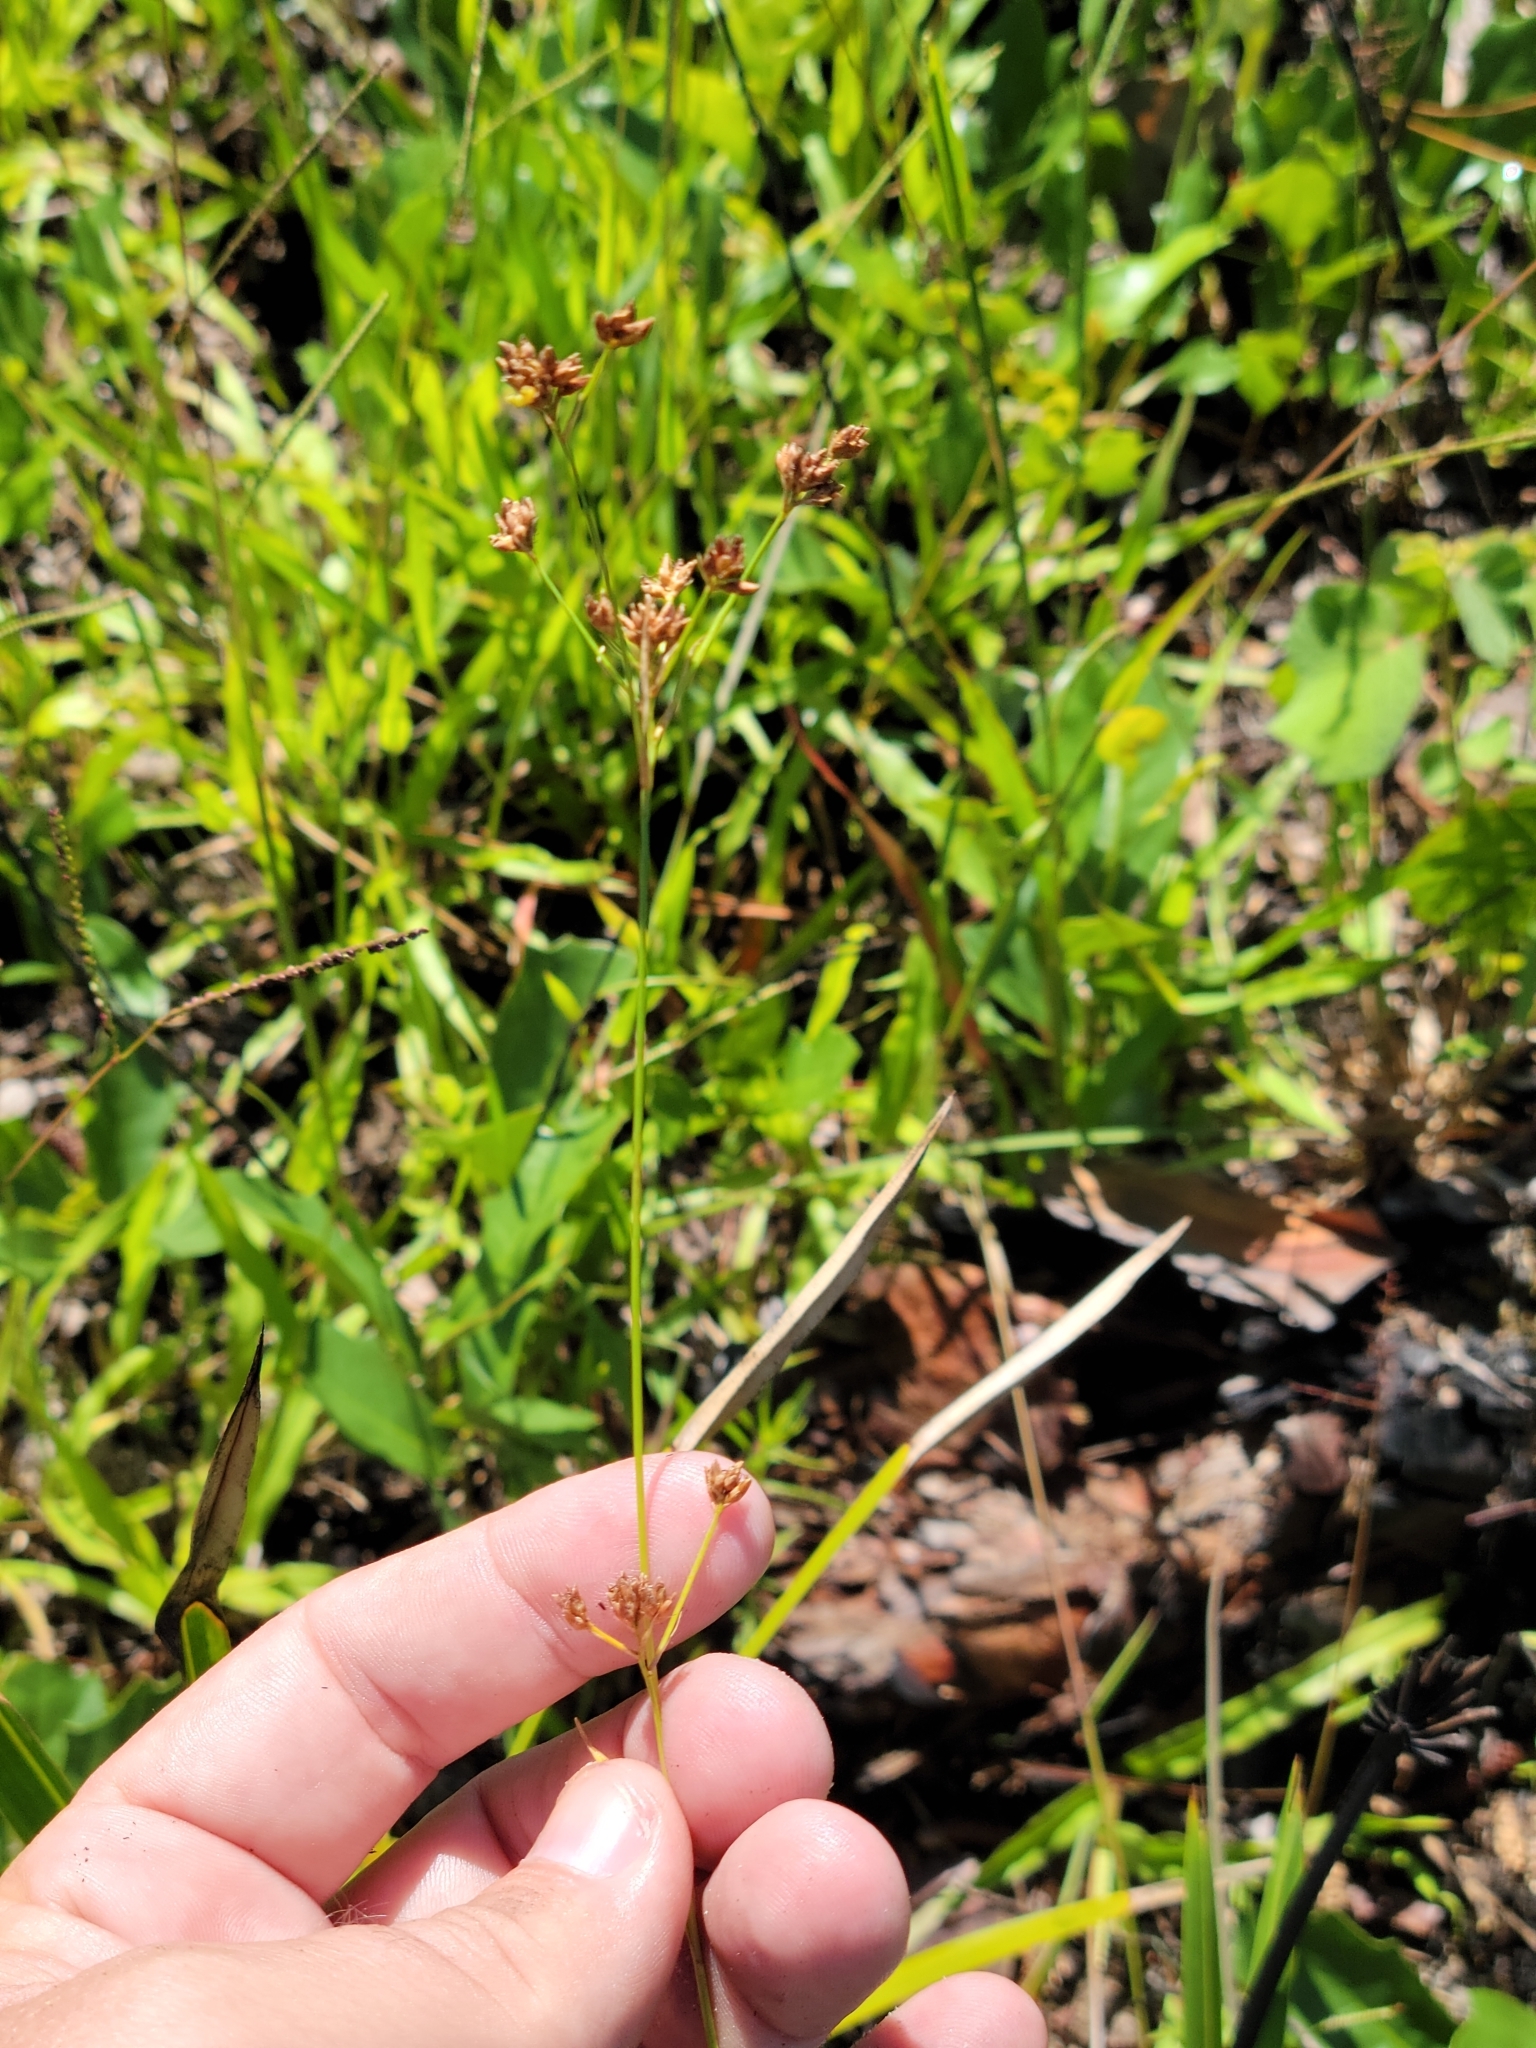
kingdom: Plantae
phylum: Tracheophyta
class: Liliopsida
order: Poales
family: Cyperaceae
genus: Rhynchospora
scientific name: Rhynchospora recognita
